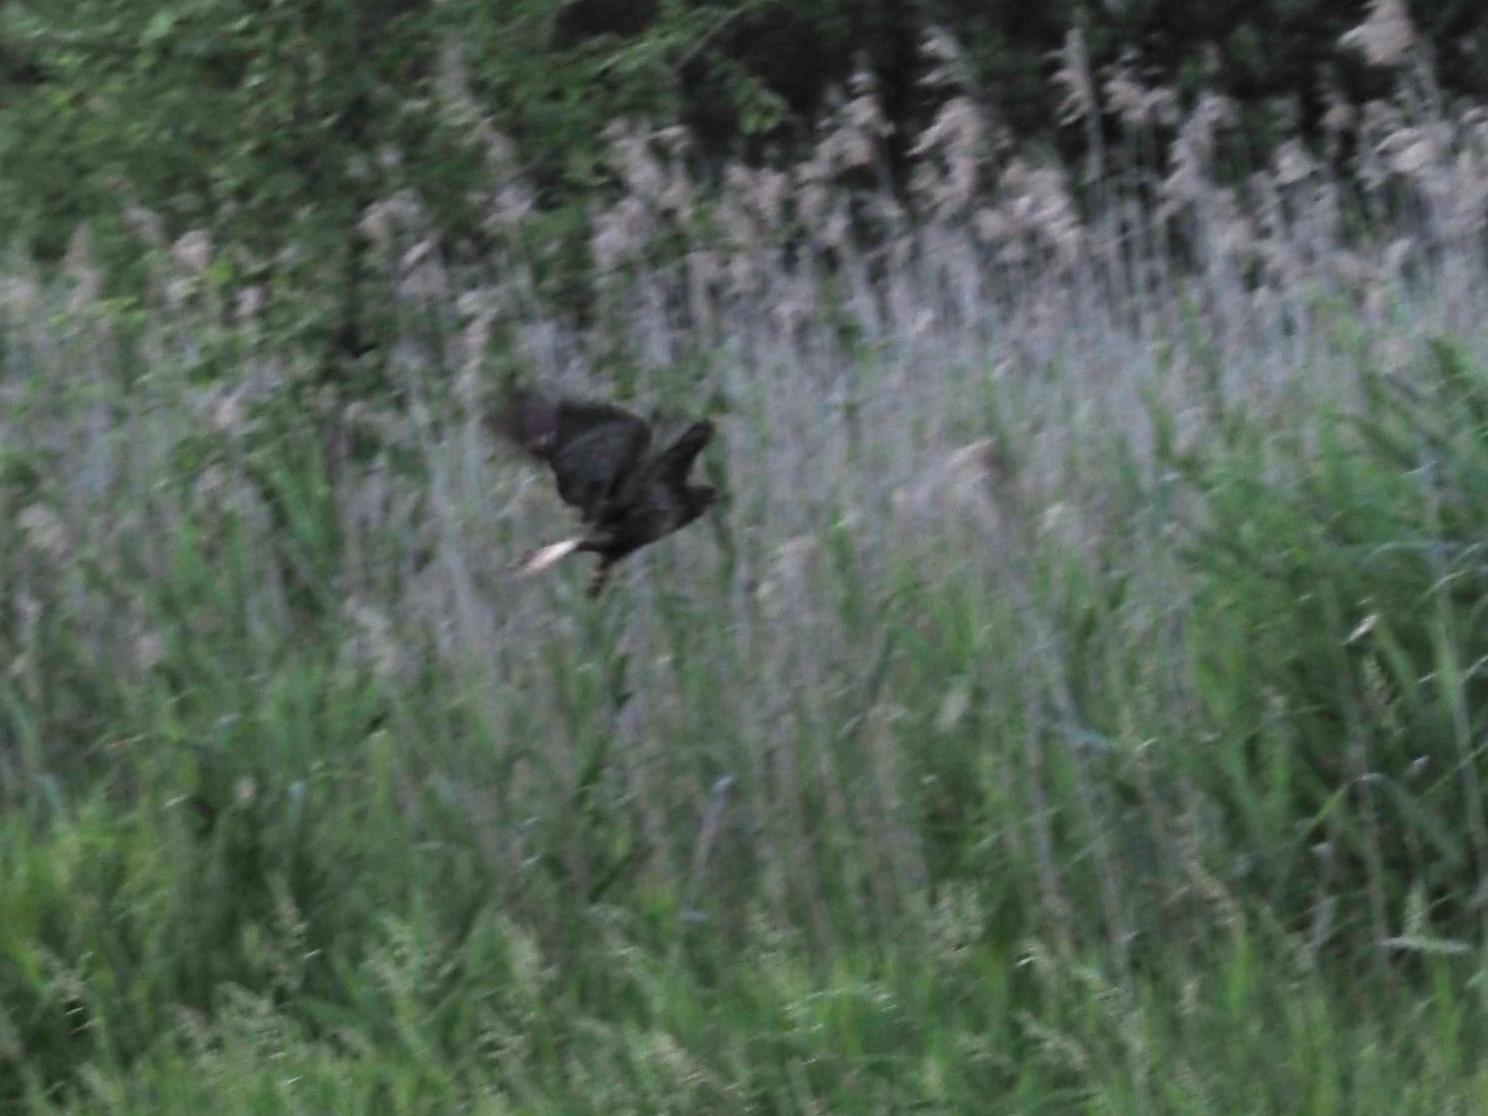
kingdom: Animalia
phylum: Chordata
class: Aves
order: Accipitriformes
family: Accipitridae
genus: Buteo
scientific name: Buteo buteo
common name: Common buzzard
